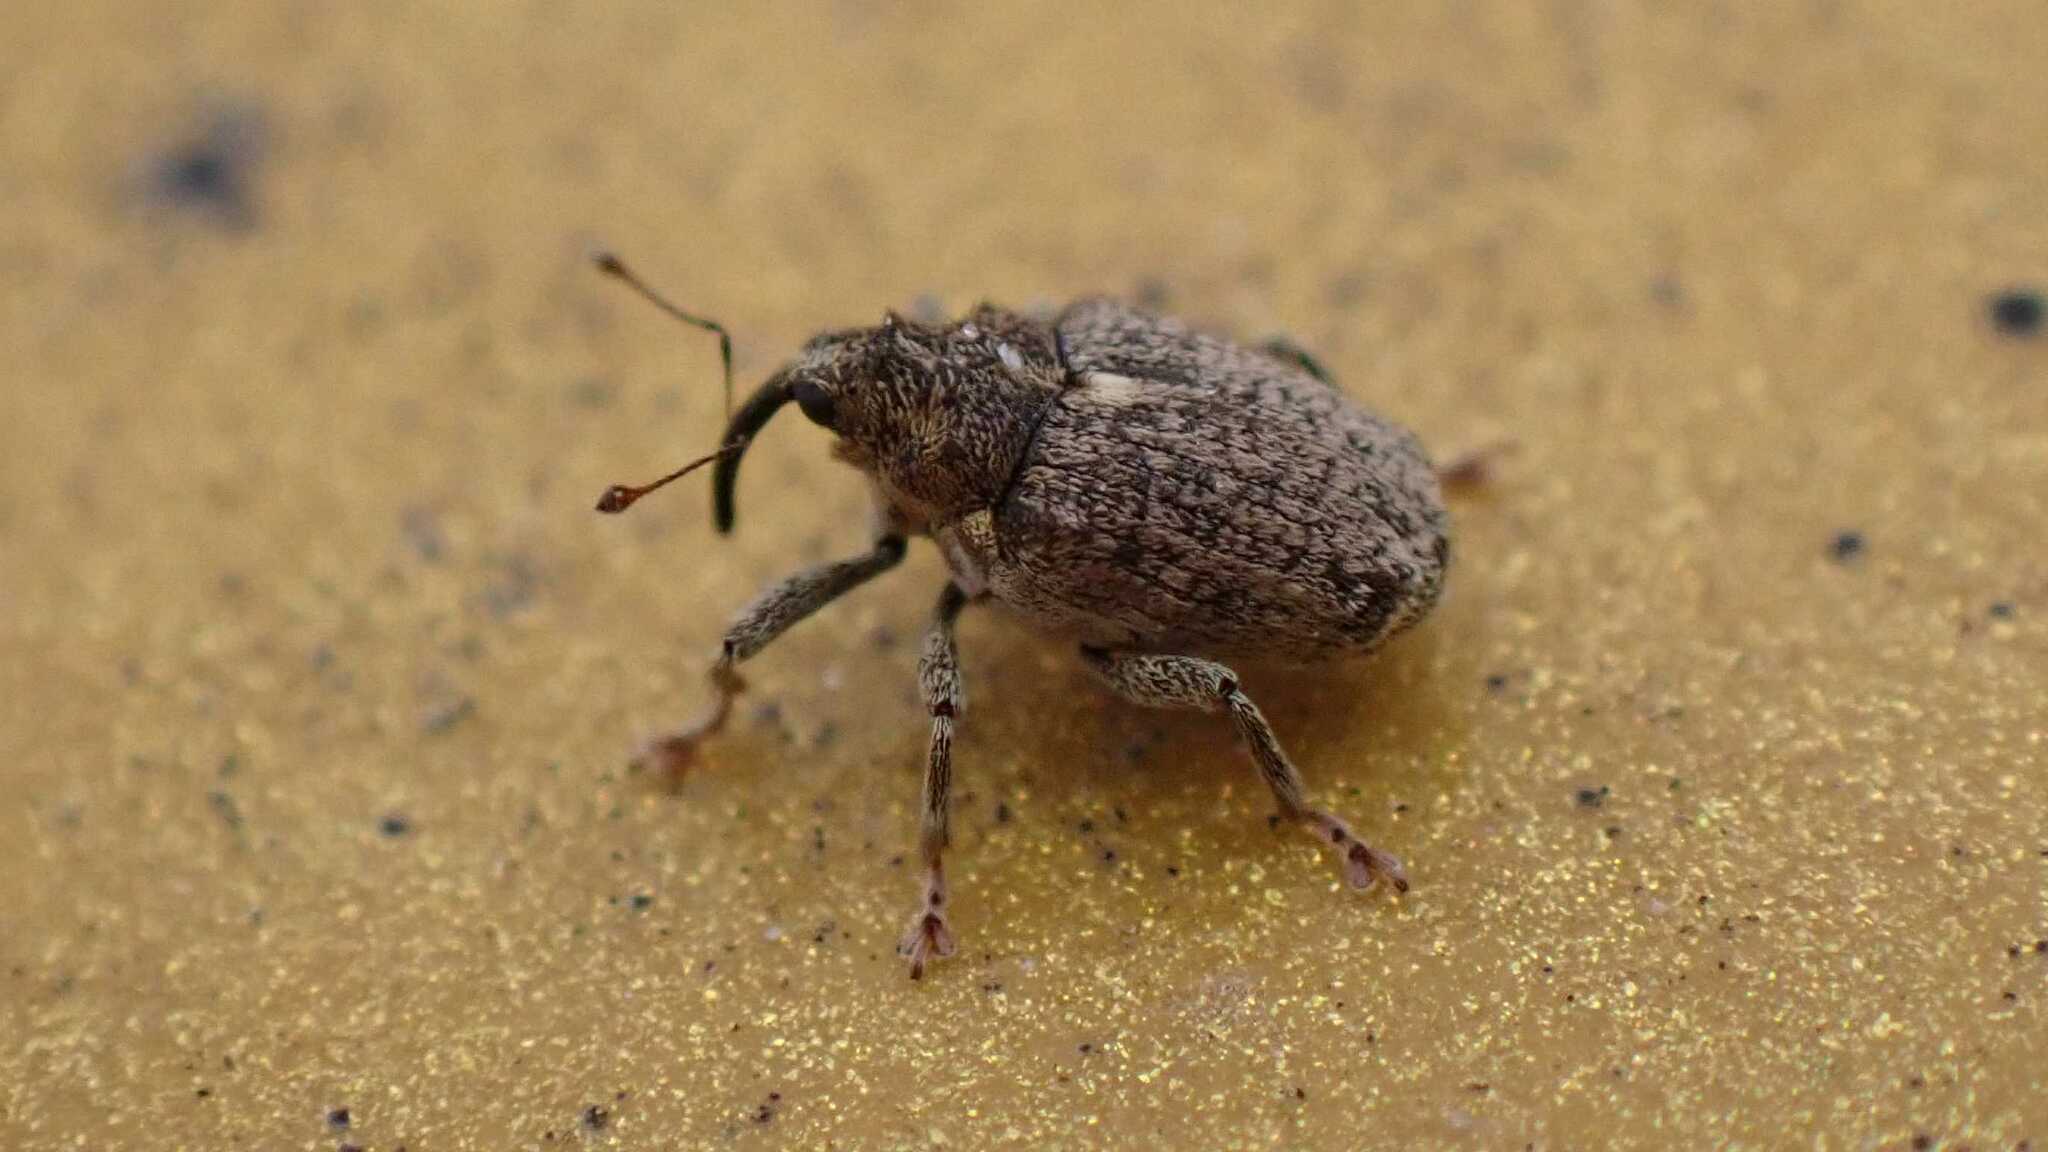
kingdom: Animalia
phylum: Arthropoda
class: Insecta
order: Coleoptera
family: Curculionidae
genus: Ceutorhynchus
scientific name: Ceutorhynchus pallidactylus
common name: Cabbage stem weavil
